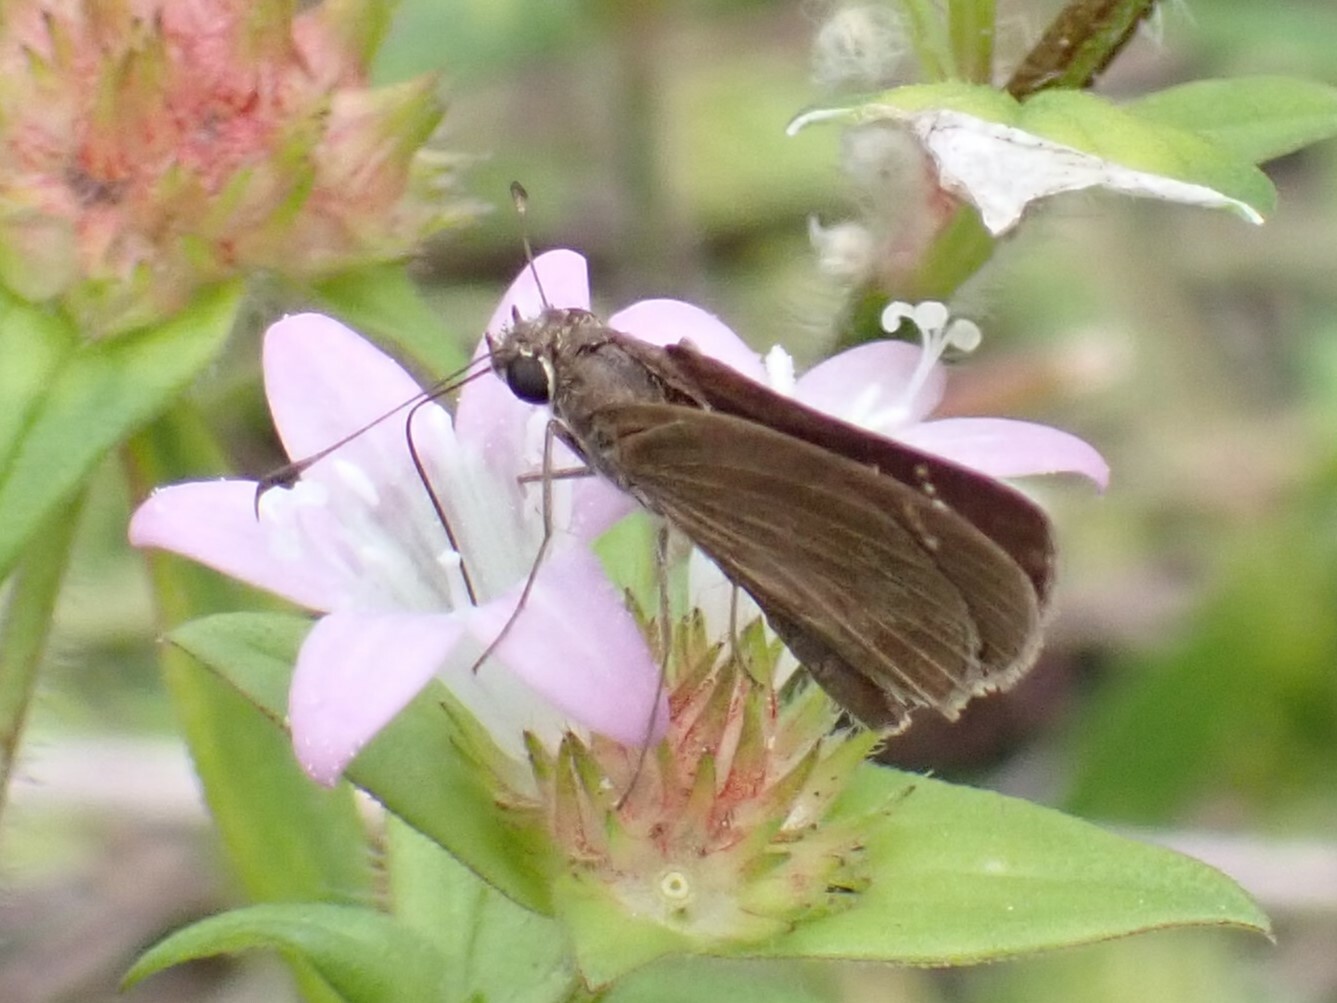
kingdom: Animalia
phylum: Arthropoda
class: Insecta
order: Lepidoptera
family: Hesperiidae
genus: Cymaenes
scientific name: Cymaenes tripunctus
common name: Dingy dotted skipper
